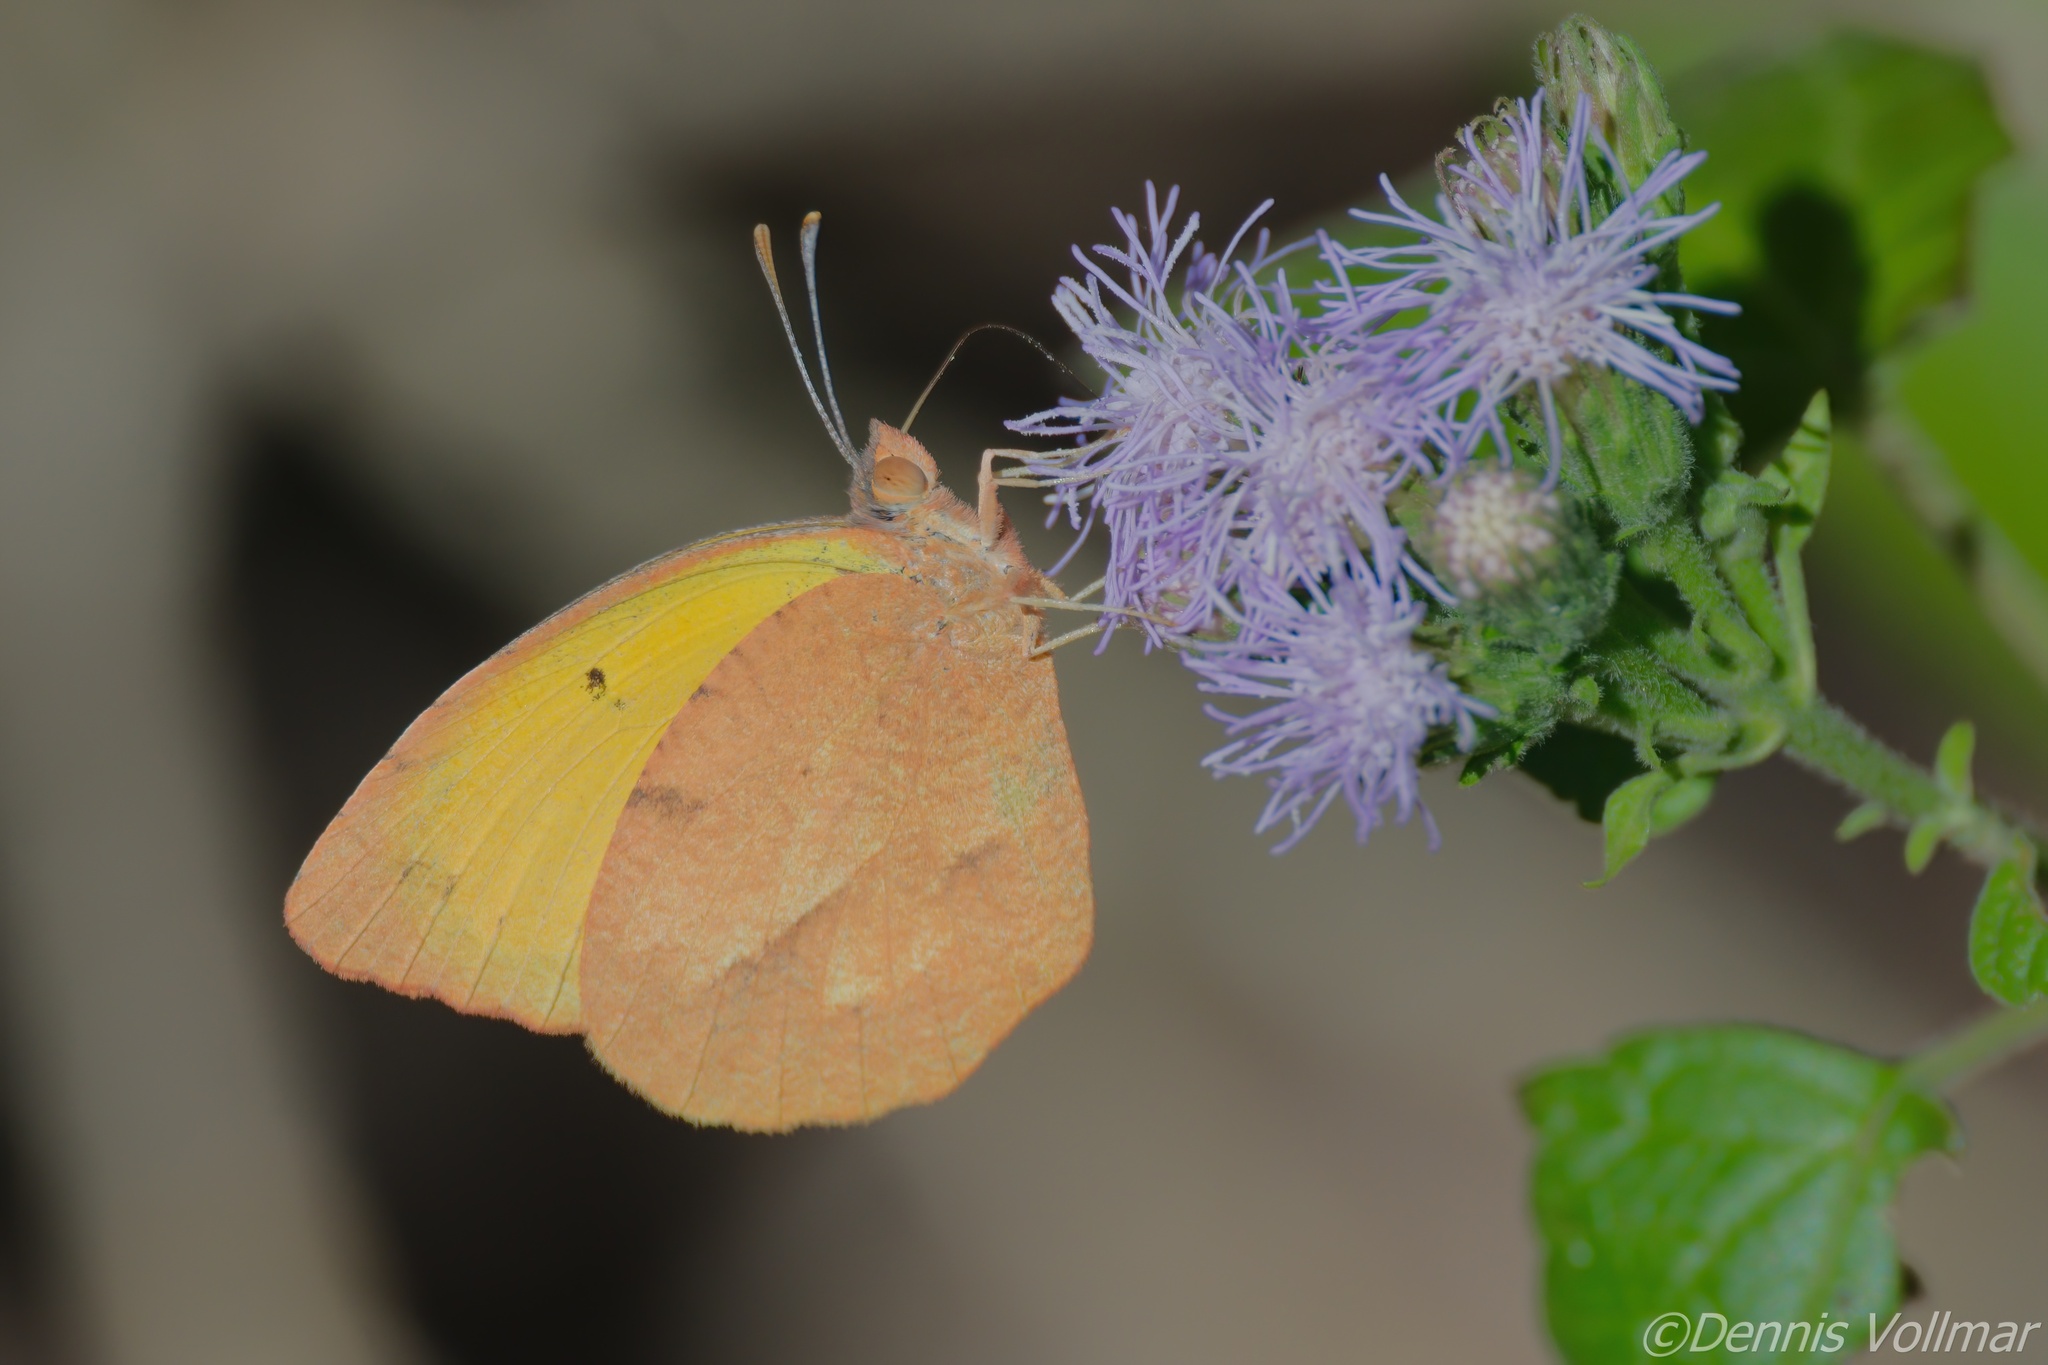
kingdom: Animalia
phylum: Arthropoda
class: Insecta
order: Lepidoptera
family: Pieridae
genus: Abaeis
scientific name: Abaeis nicippe
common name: Sleepy orange
